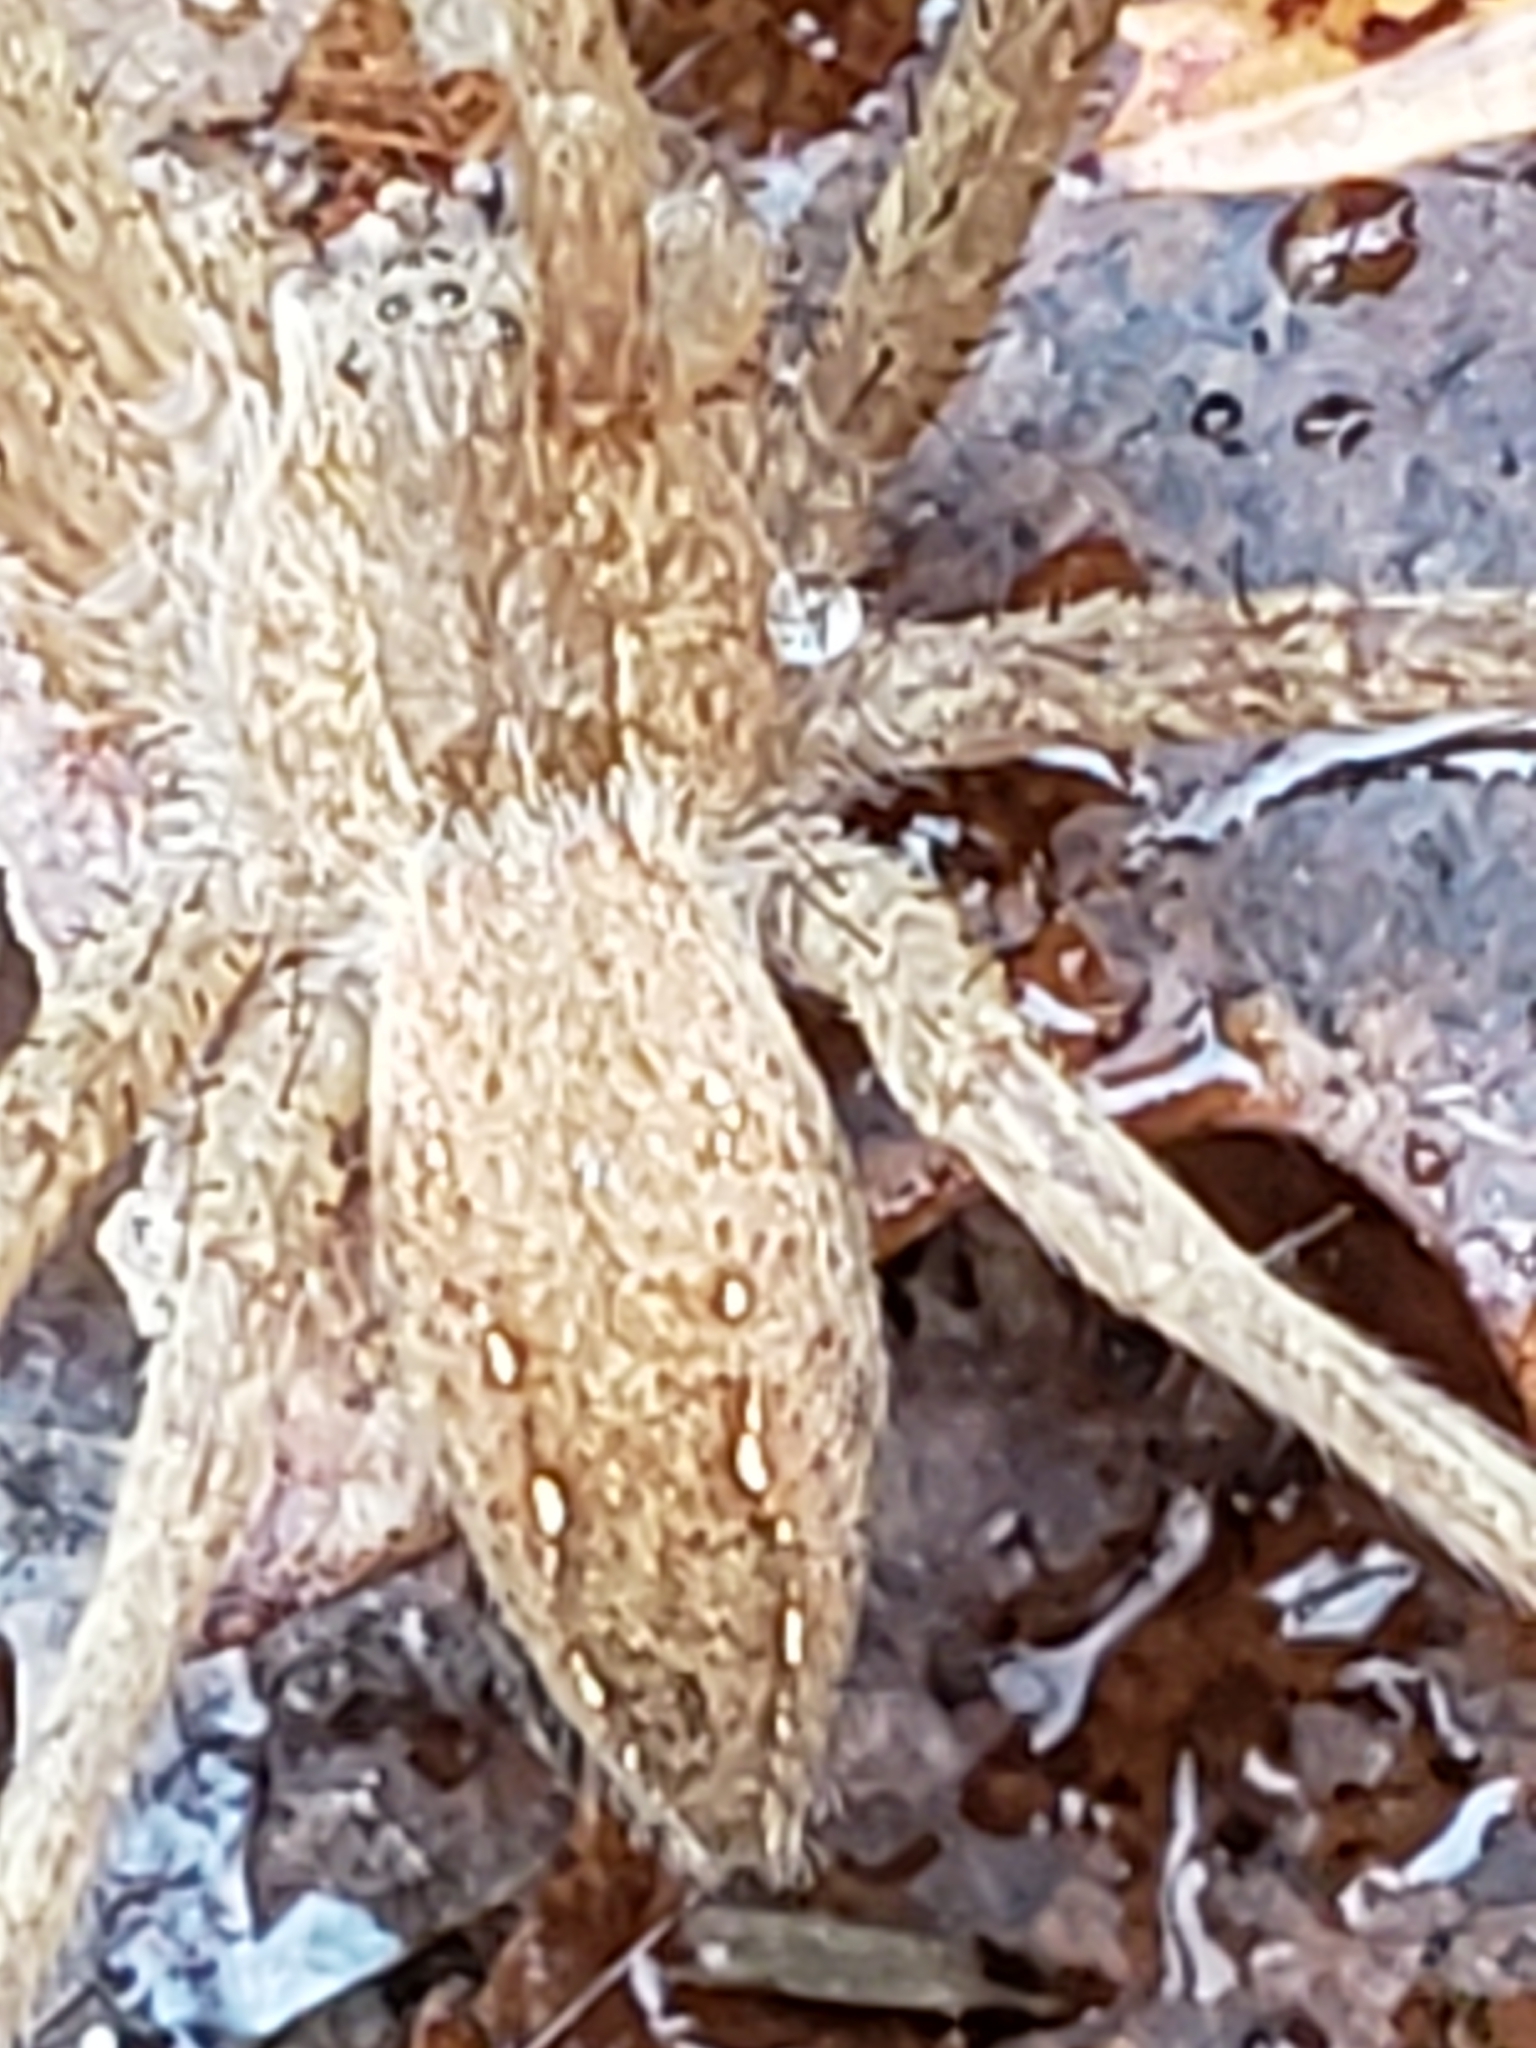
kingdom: Animalia
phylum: Arthropoda
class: Arachnida
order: Araneae
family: Pisauridae
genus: Pisaurina
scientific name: Pisaurina mira
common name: American nursery web spider
